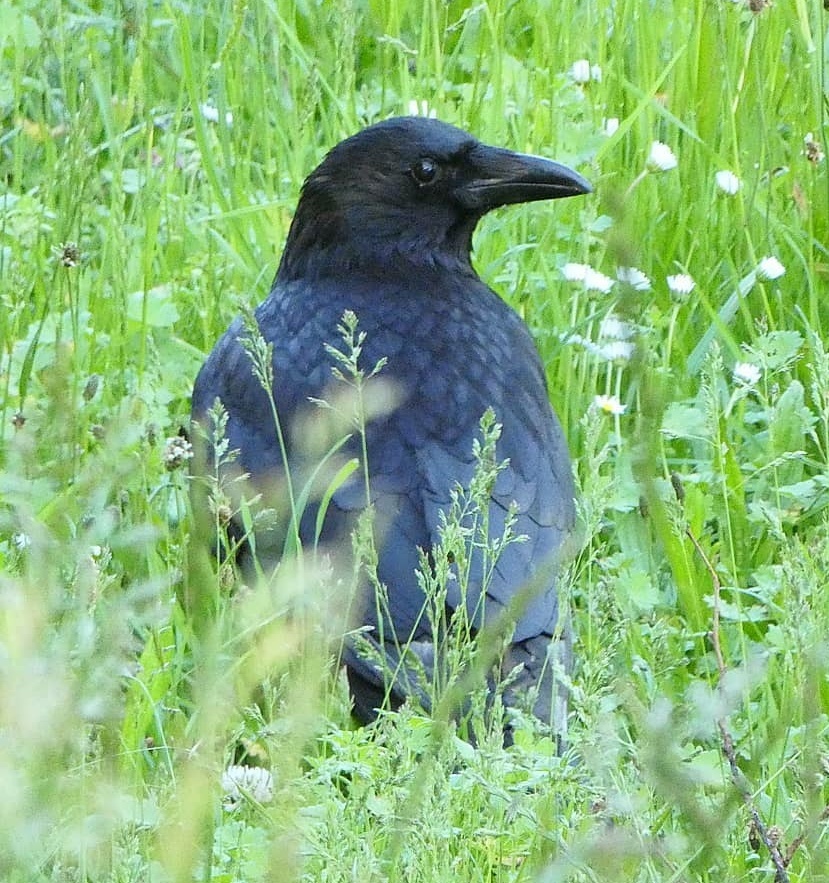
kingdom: Animalia
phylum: Chordata
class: Aves
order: Passeriformes
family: Corvidae
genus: Corvus
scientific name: Corvus corone
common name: Carrion crow
